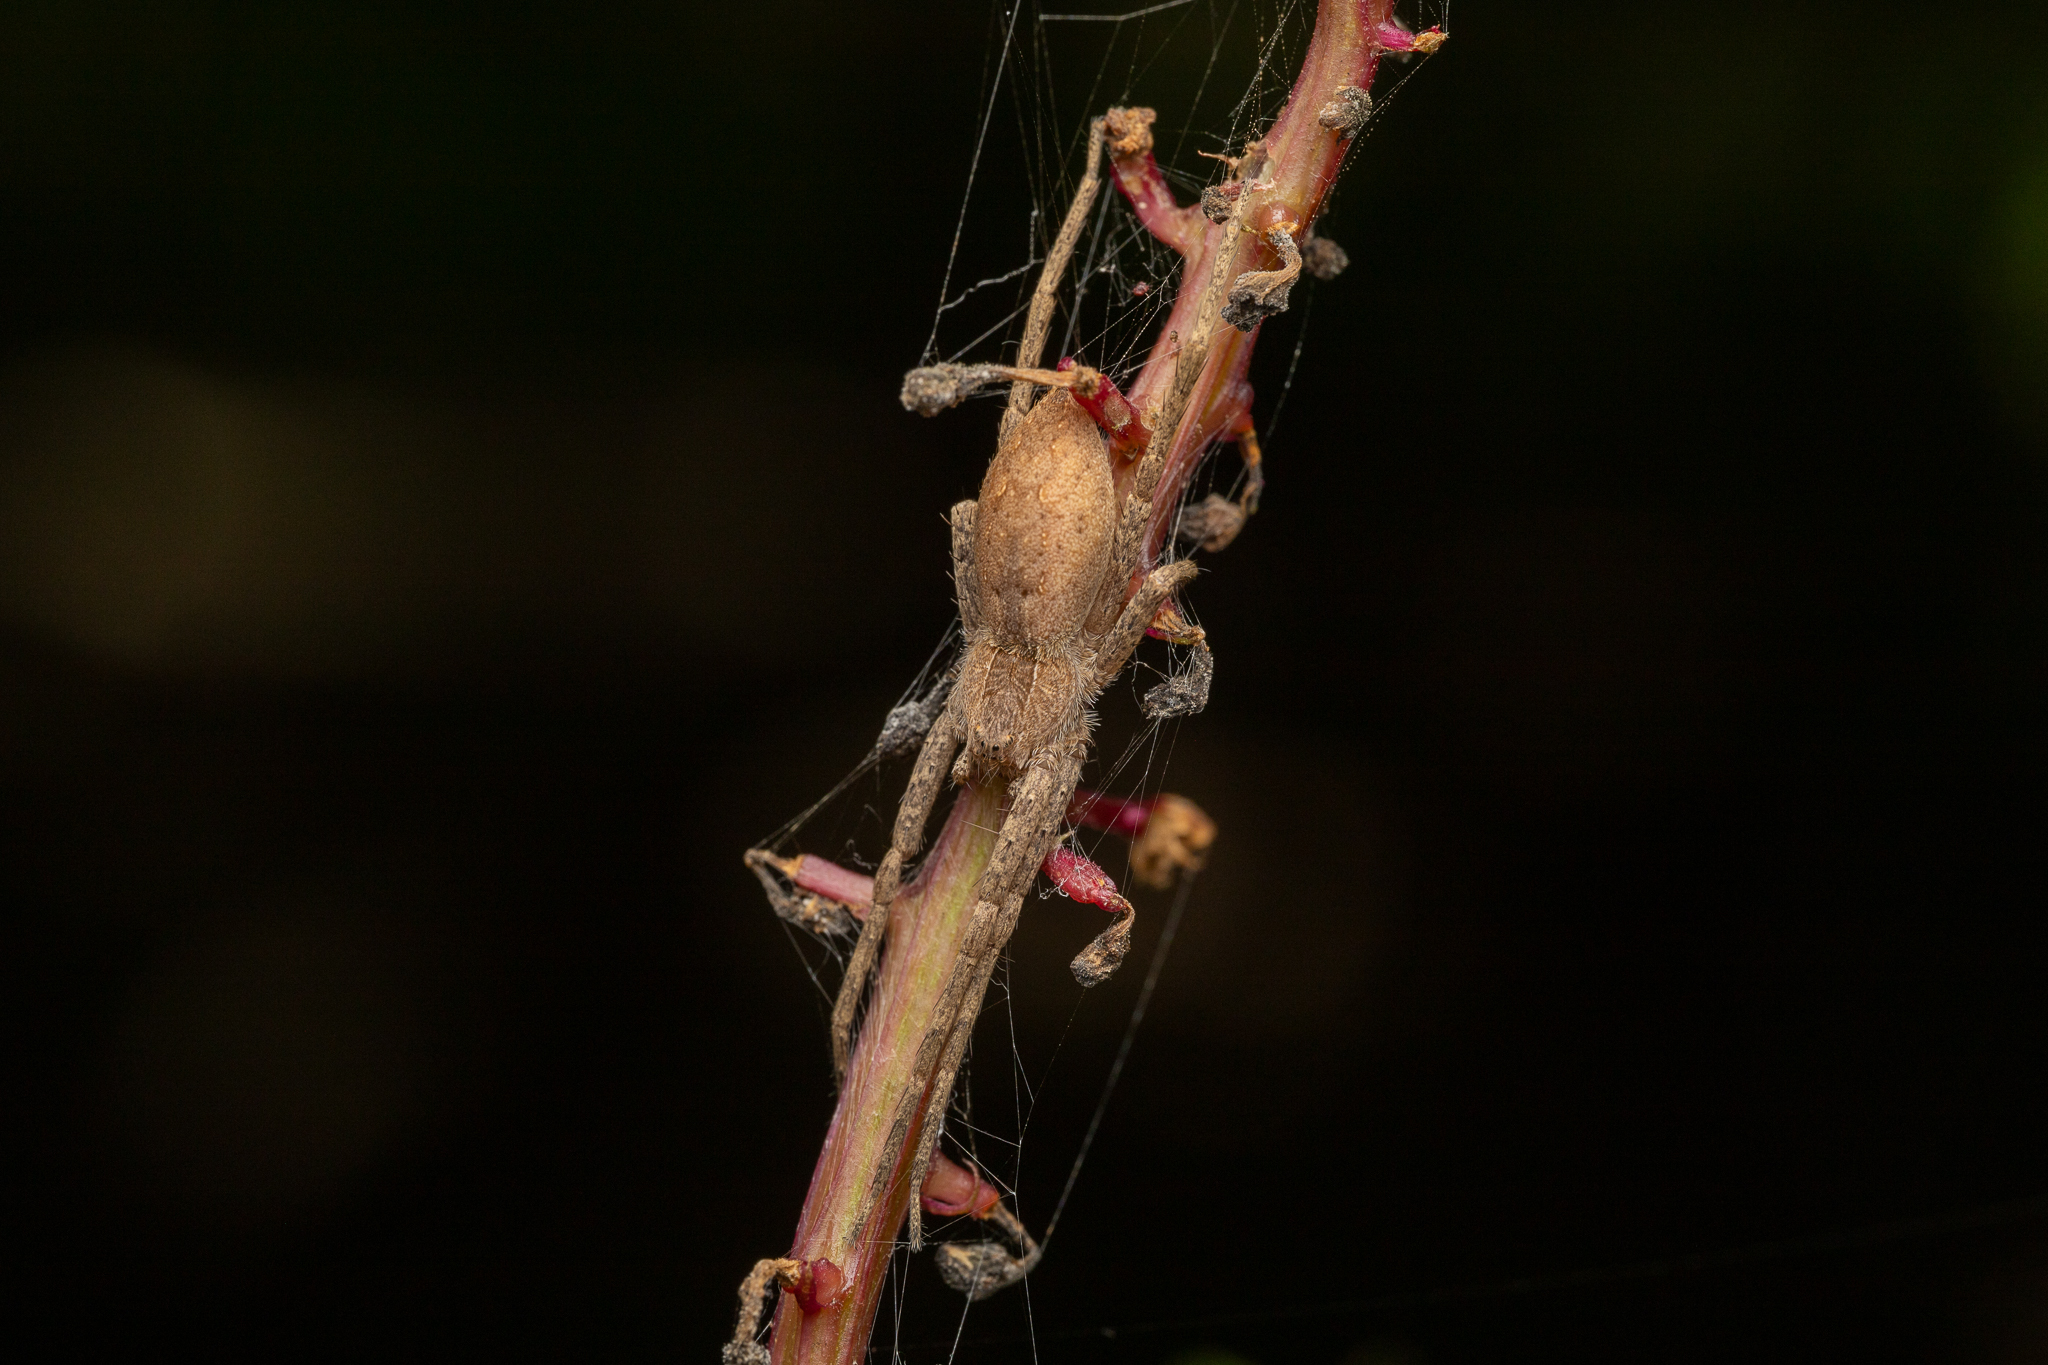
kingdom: Animalia
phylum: Arthropoda
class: Arachnida
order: Araneae
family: Pisauridae
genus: Pisaurina
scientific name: Pisaurina mira
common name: American nursery web spider
